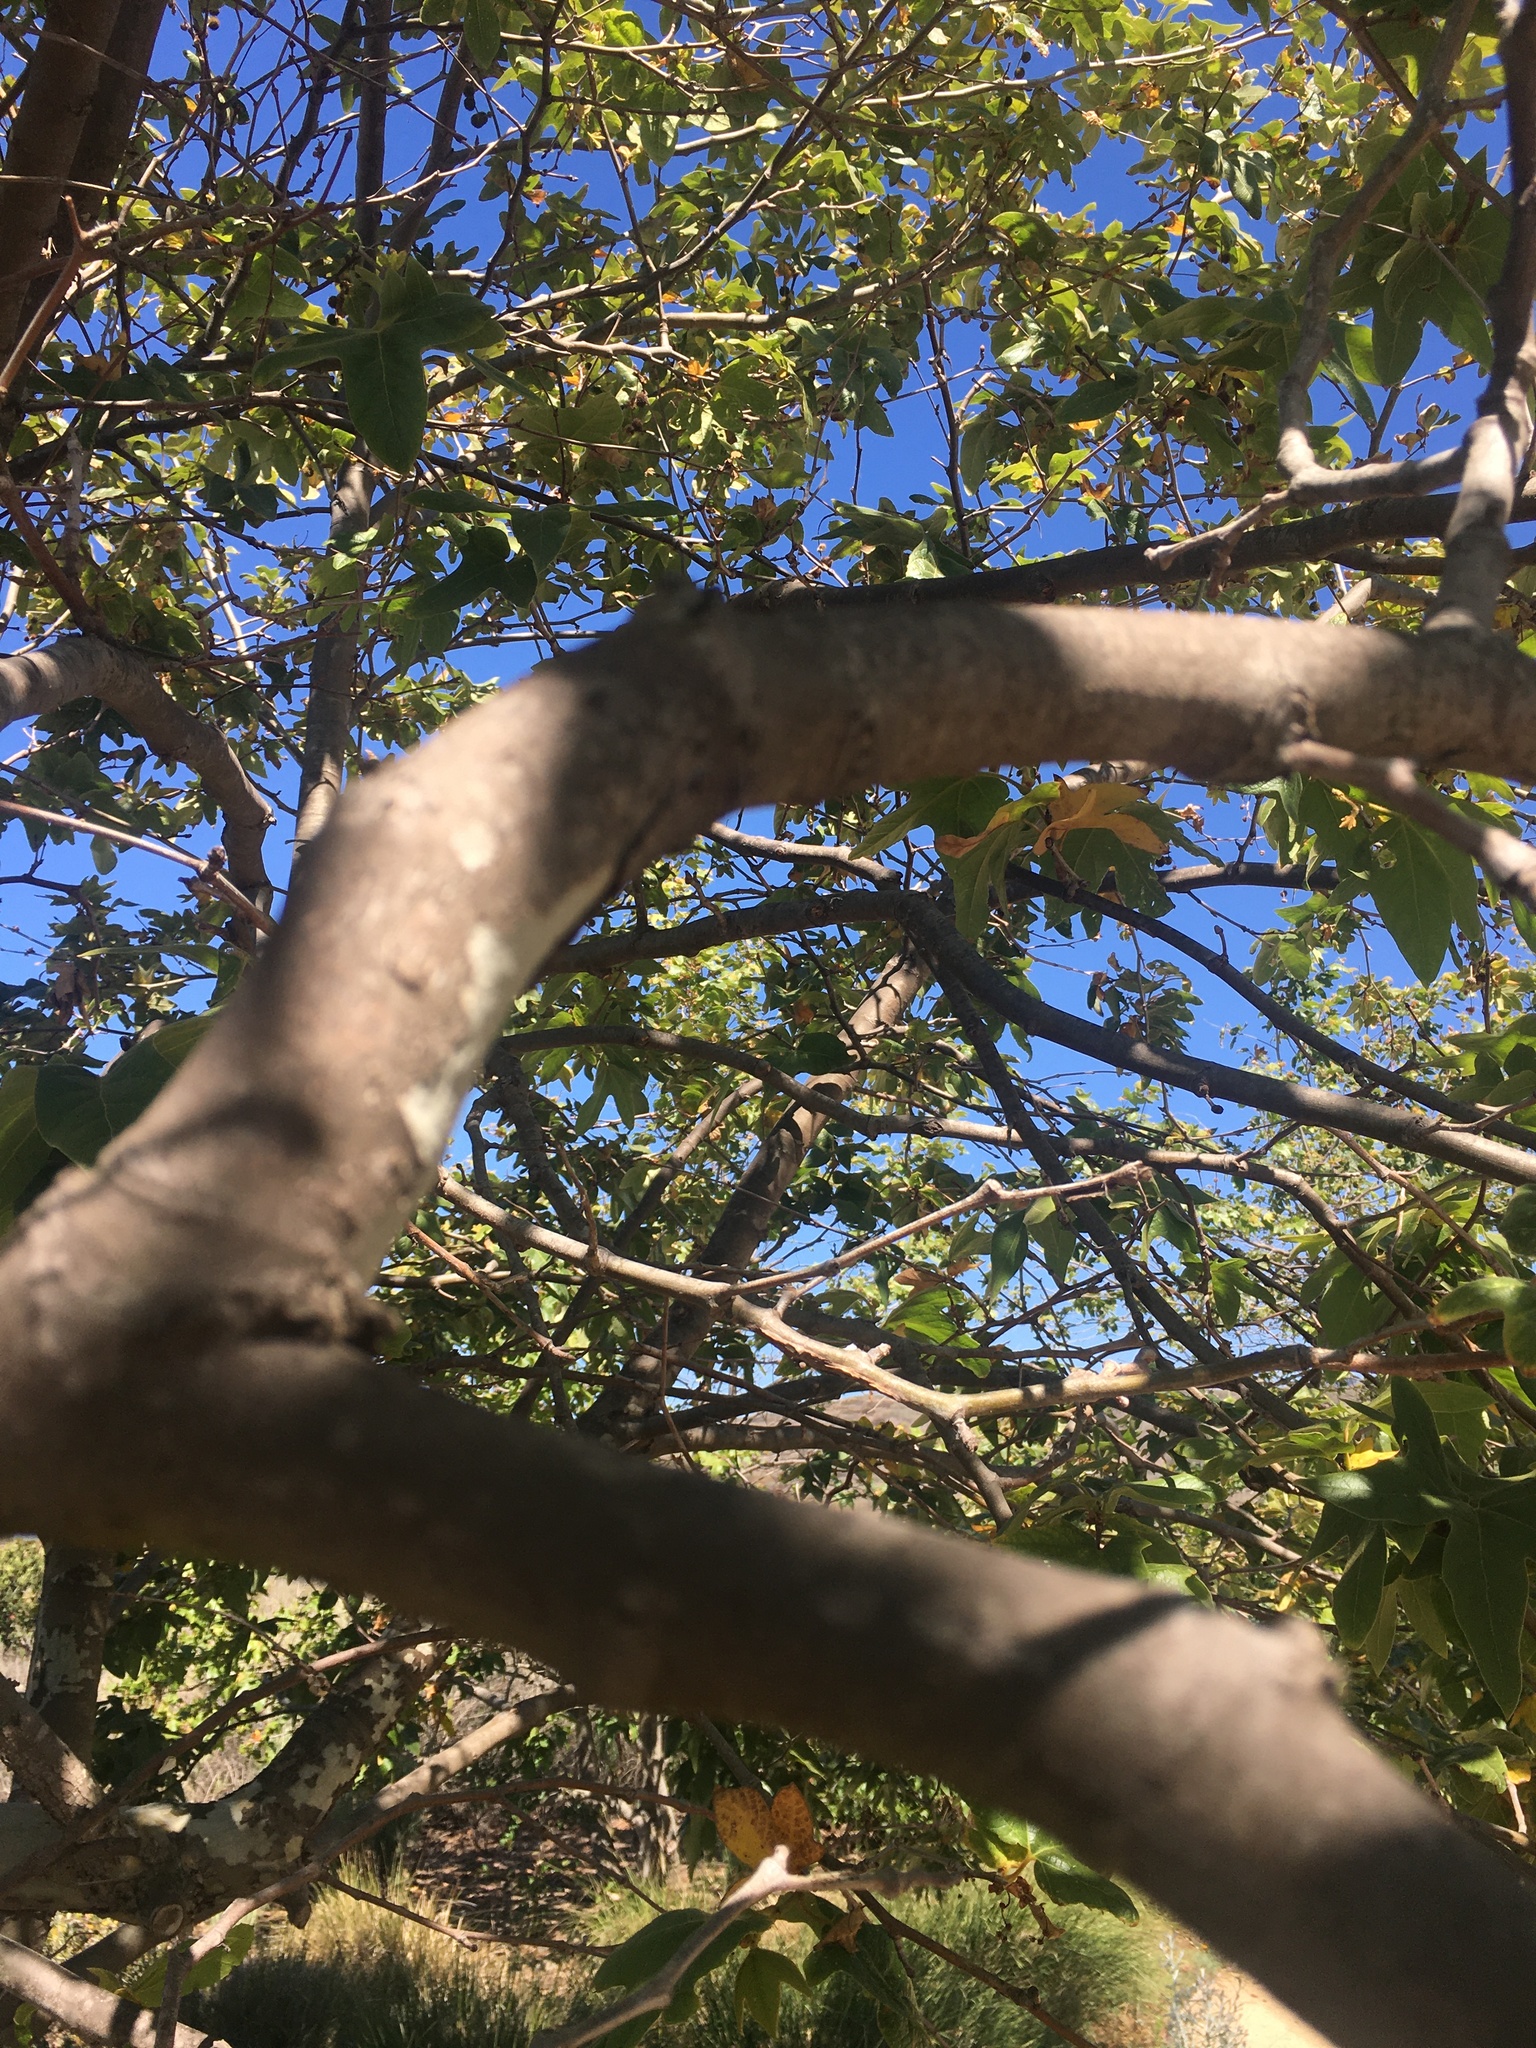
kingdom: Plantae
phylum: Tracheophyta
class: Magnoliopsida
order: Proteales
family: Platanaceae
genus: Platanus
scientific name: Platanus racemosa
